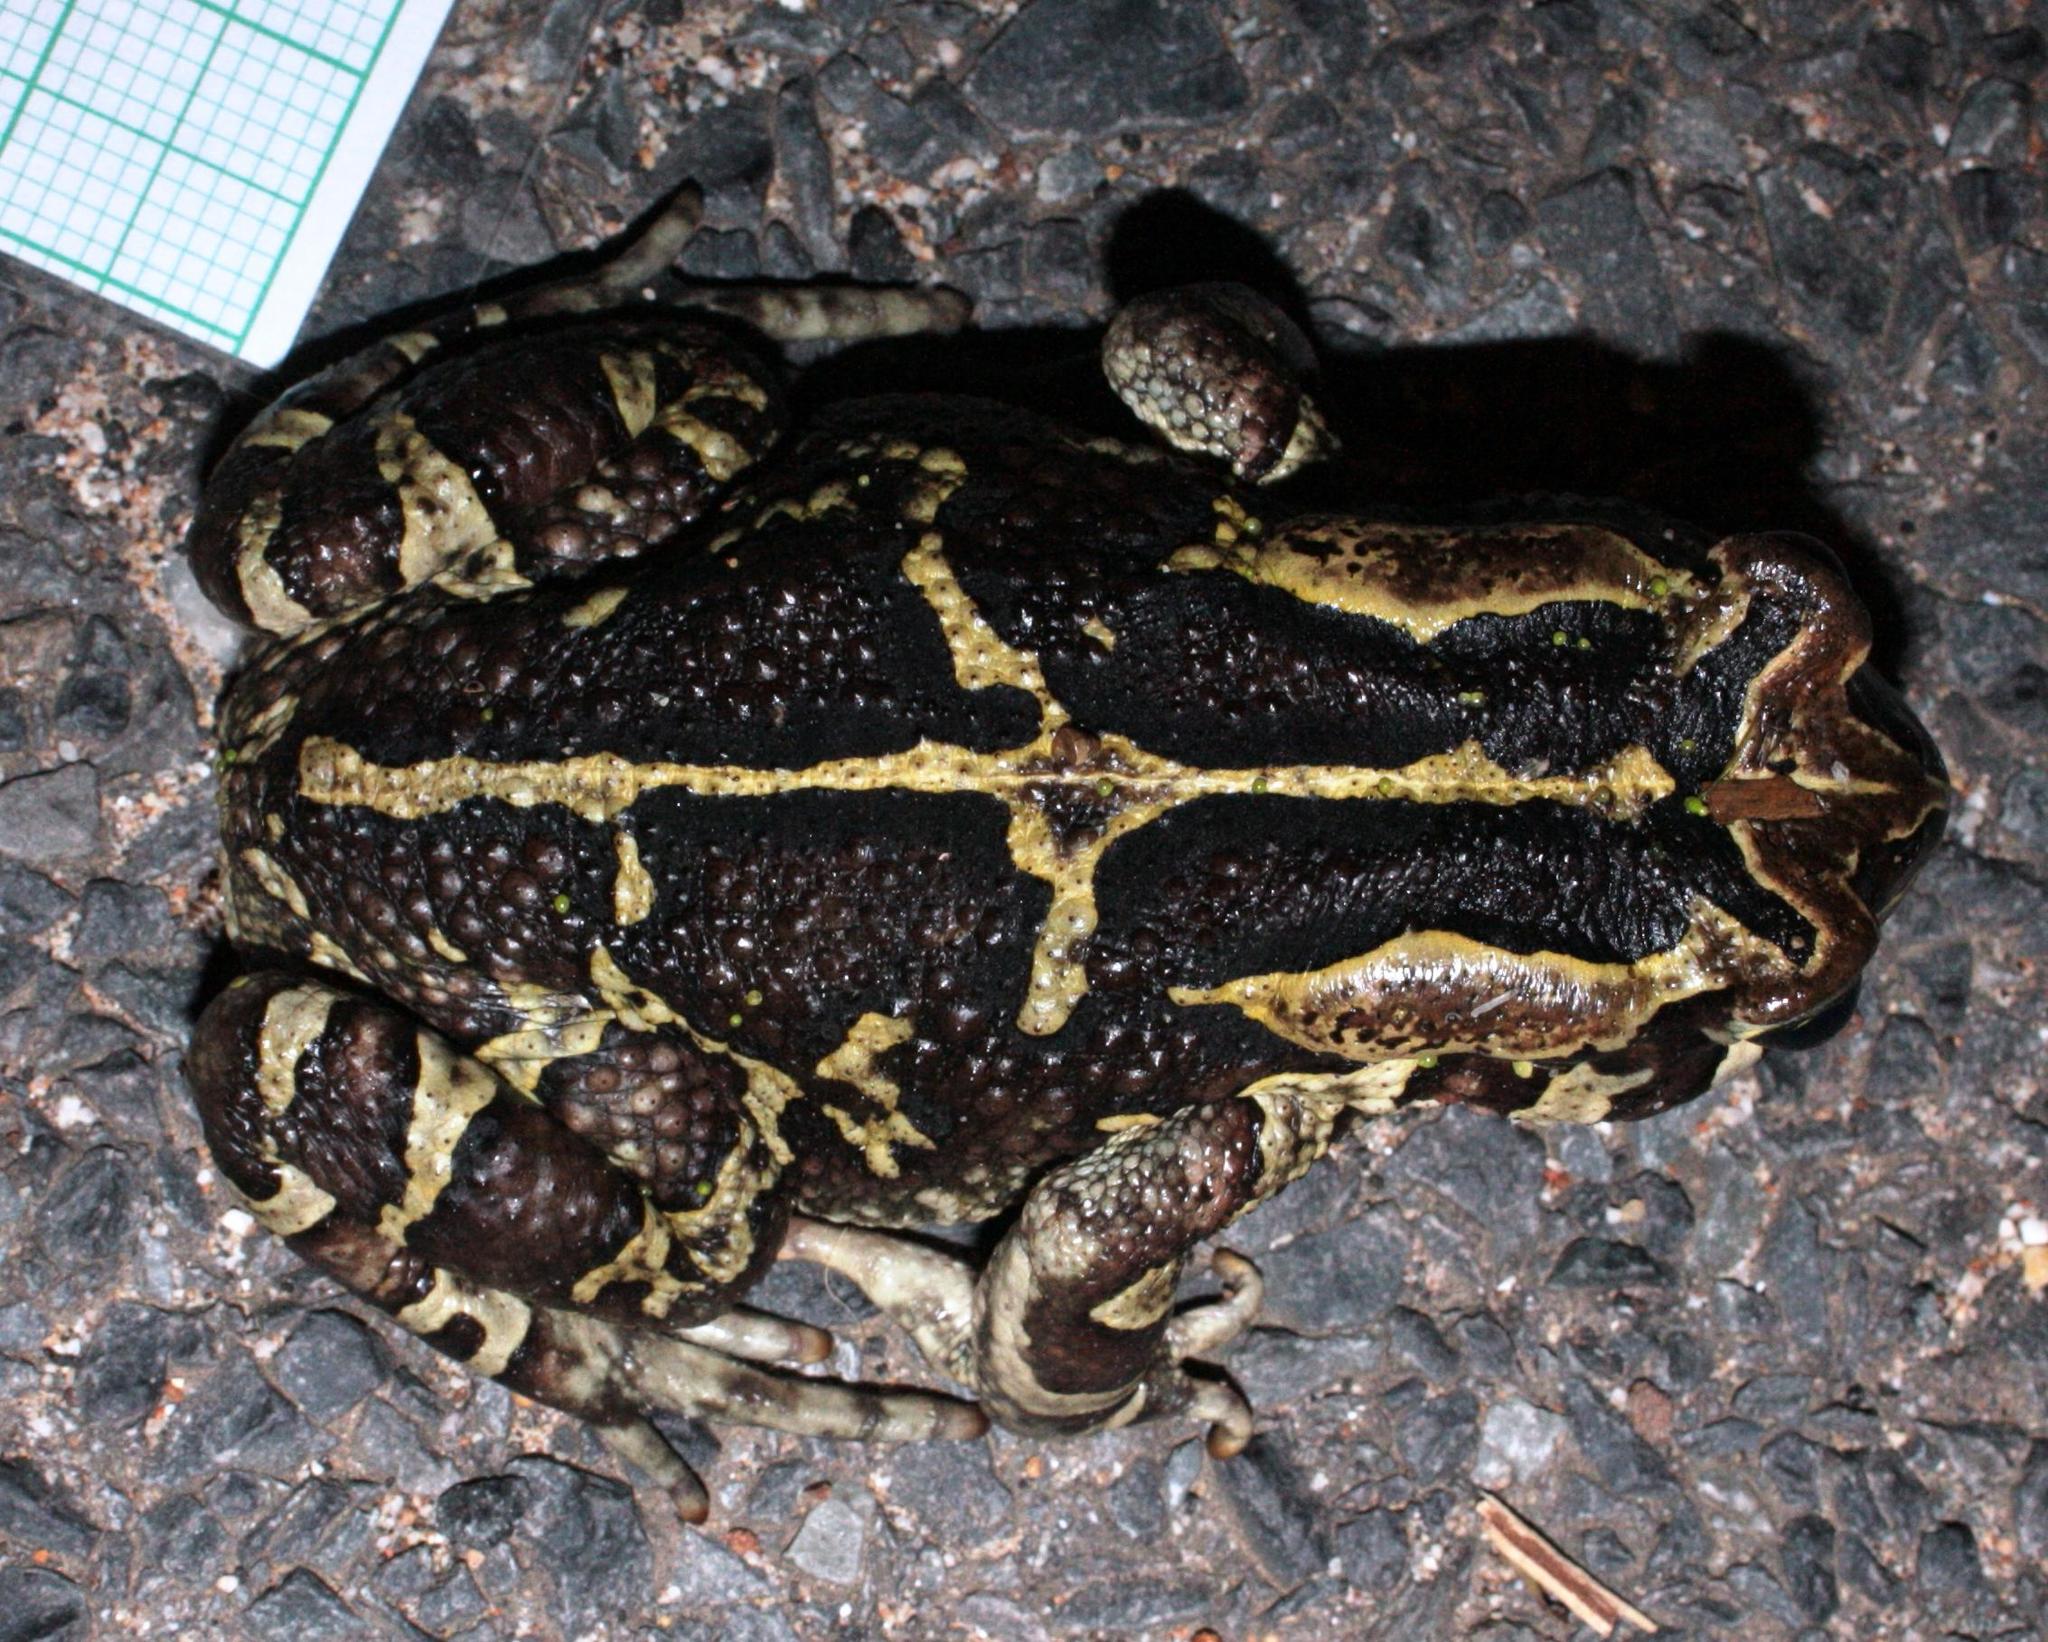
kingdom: Animalia
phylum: Chordata
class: Amphibia
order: Anura
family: Bufonidae
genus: Sclerophrys
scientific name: Sclerophrys pantherina
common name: Panther toad
